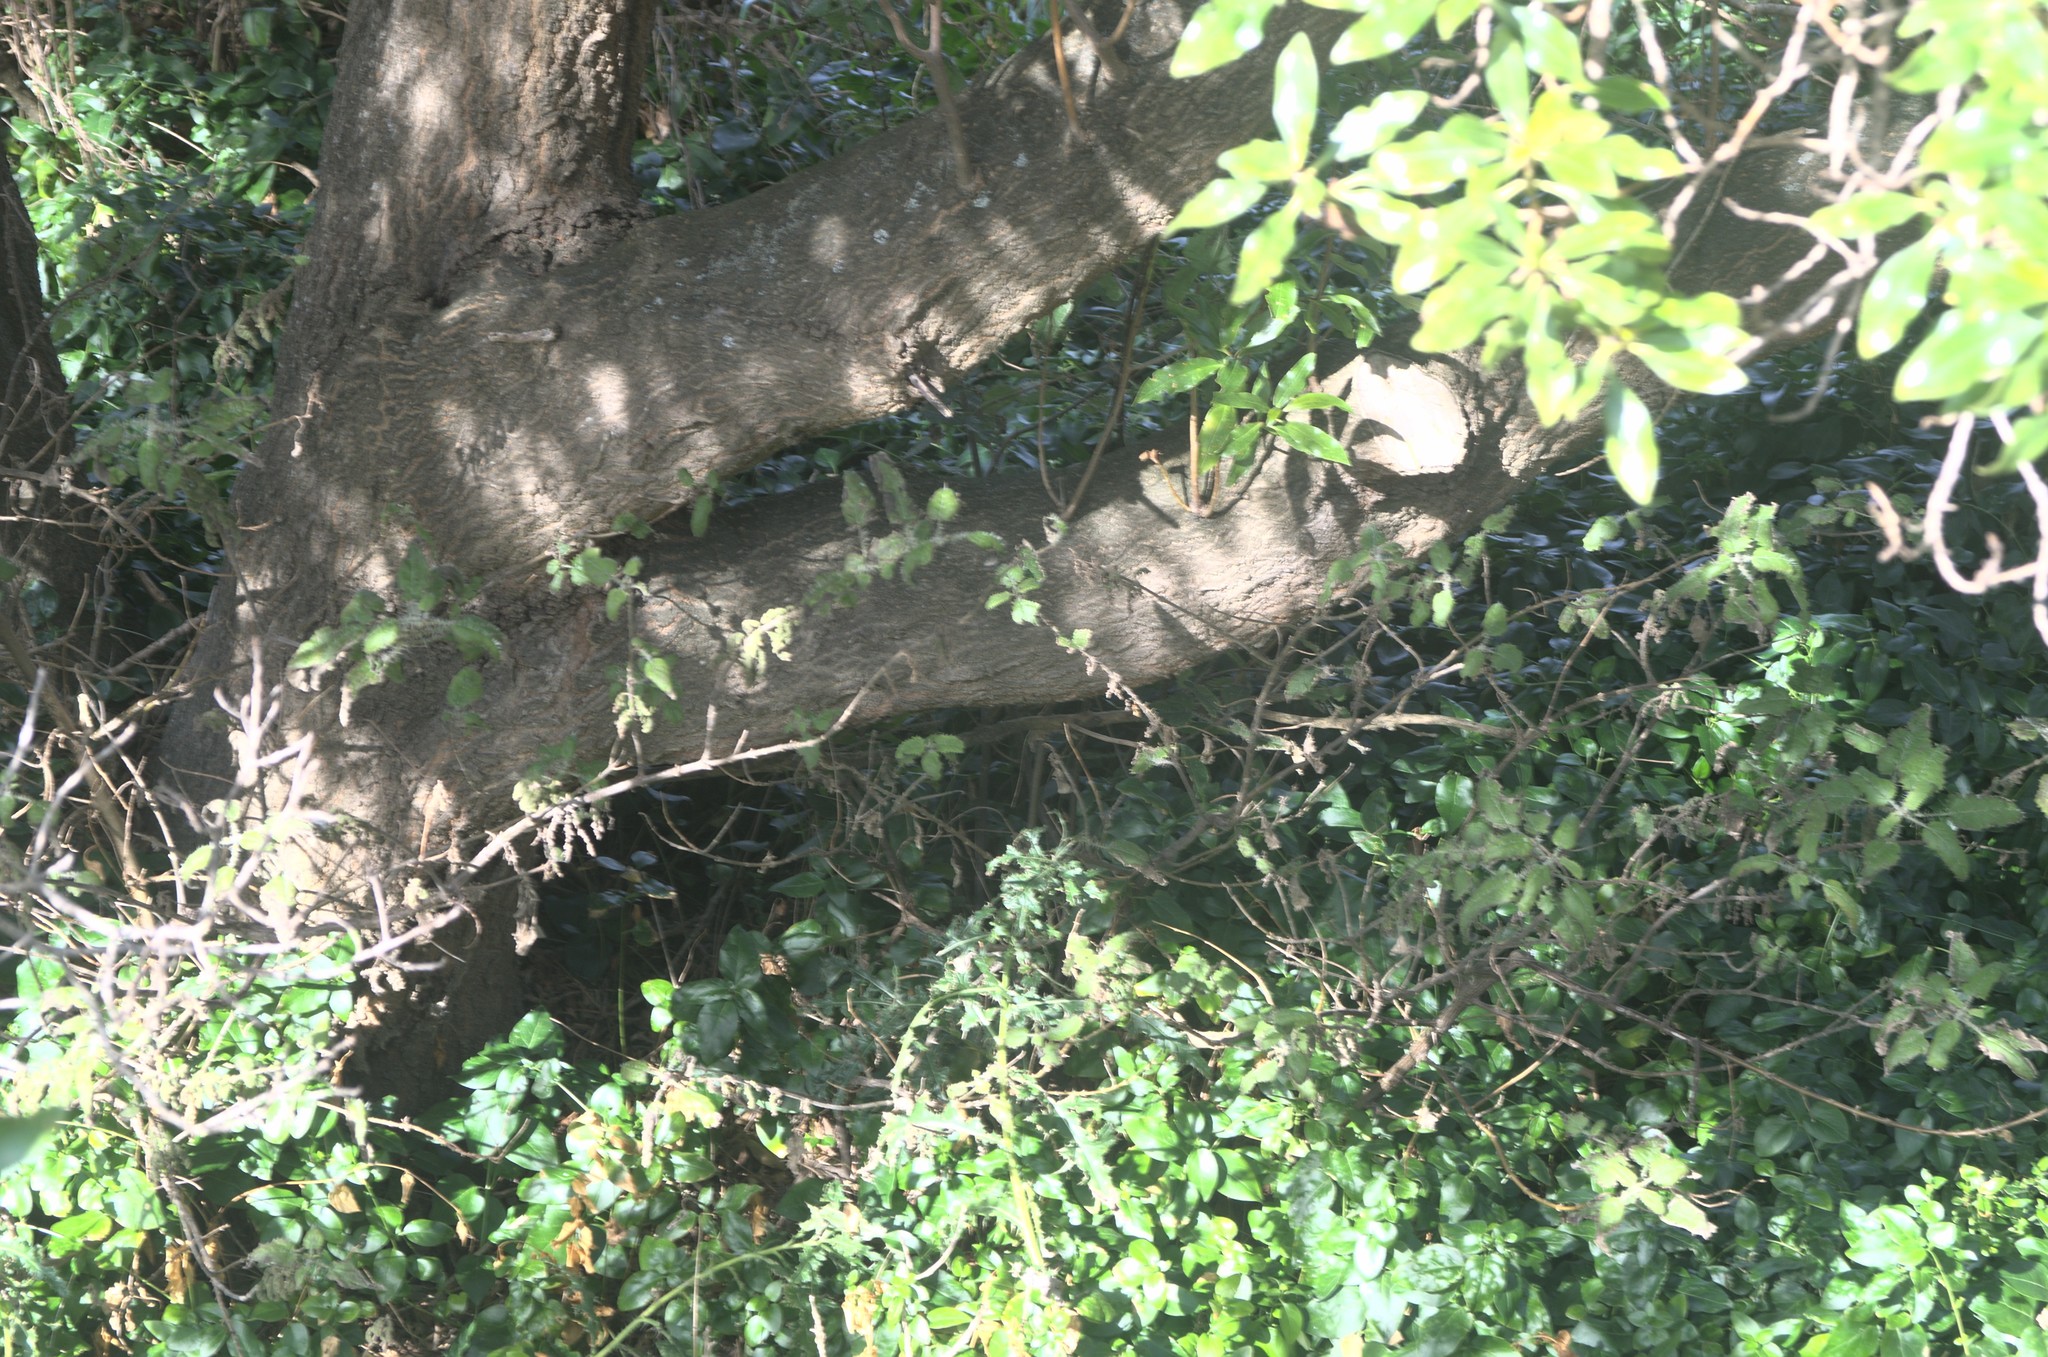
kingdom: Plantae
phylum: Tracheophyta
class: Magnoliopsida
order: Rosales
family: Urticaceae
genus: Urtica
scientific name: Urtica ferox
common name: Tree nettle
